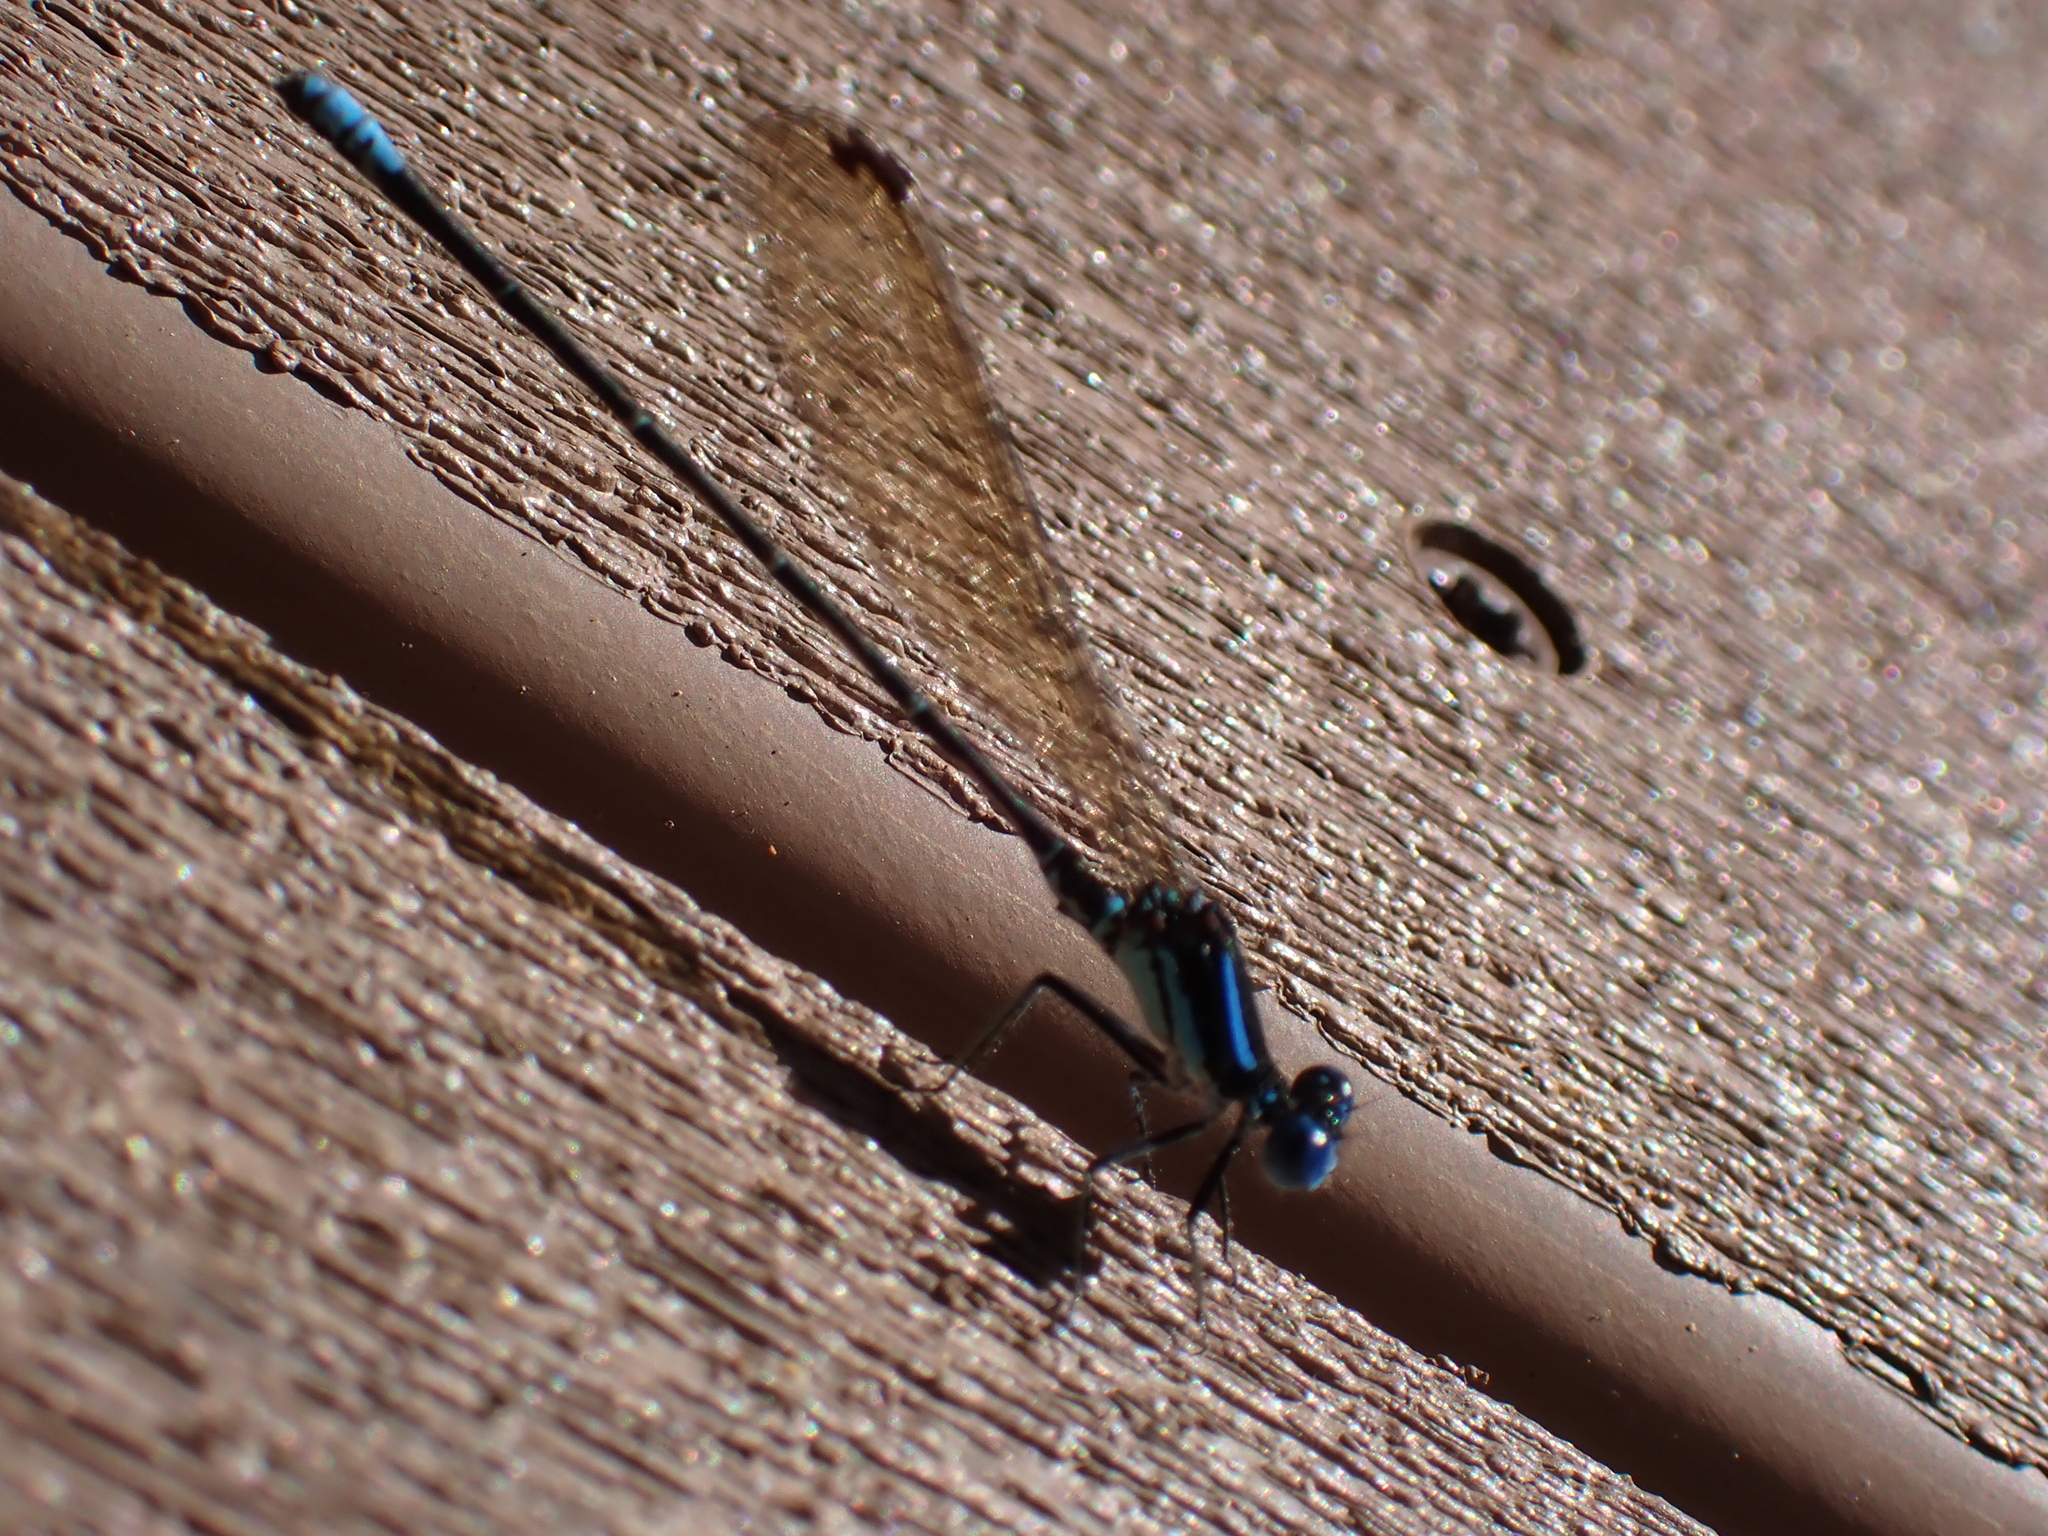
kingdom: Animalia
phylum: Arthropoda
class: Insecta
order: Odonata
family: Coenagrionidae
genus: Argia
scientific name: Argia sedula
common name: Blue-ringed dancer
